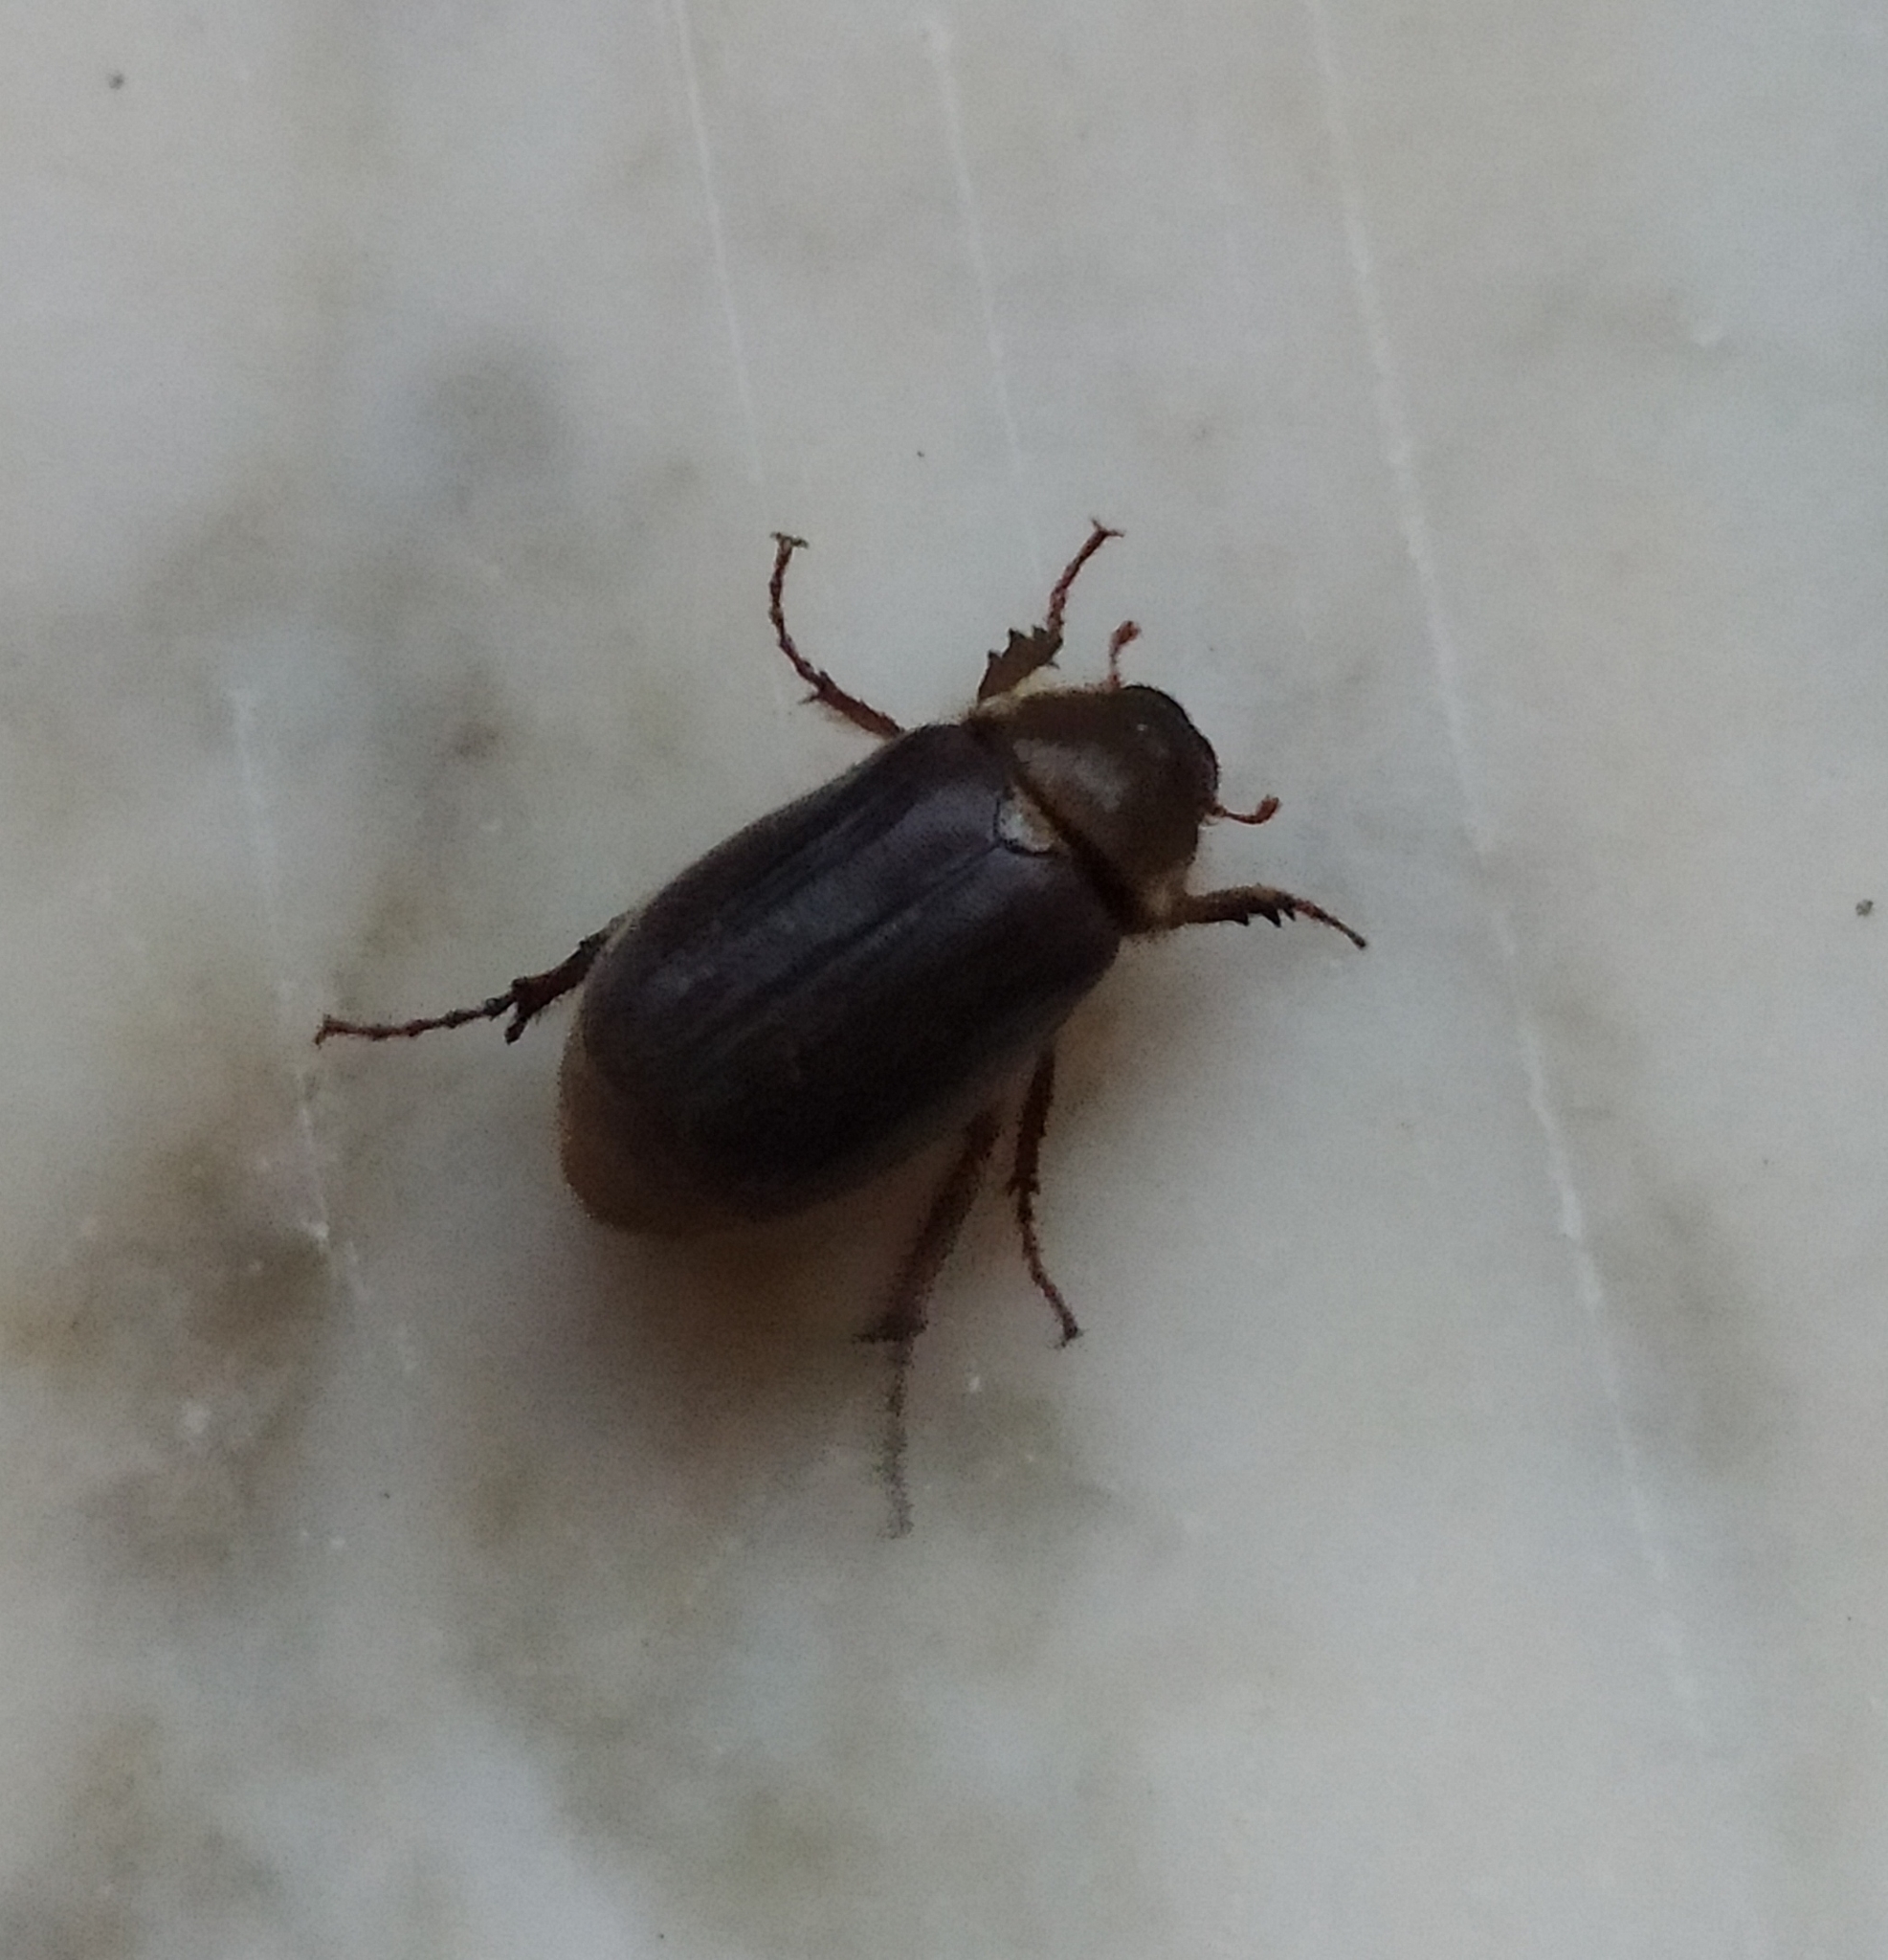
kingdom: Animalia
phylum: Arthropoda
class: Insecta
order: Coleoptera
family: Scarabaeidae
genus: Aplidia
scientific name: Aplidia transversa
